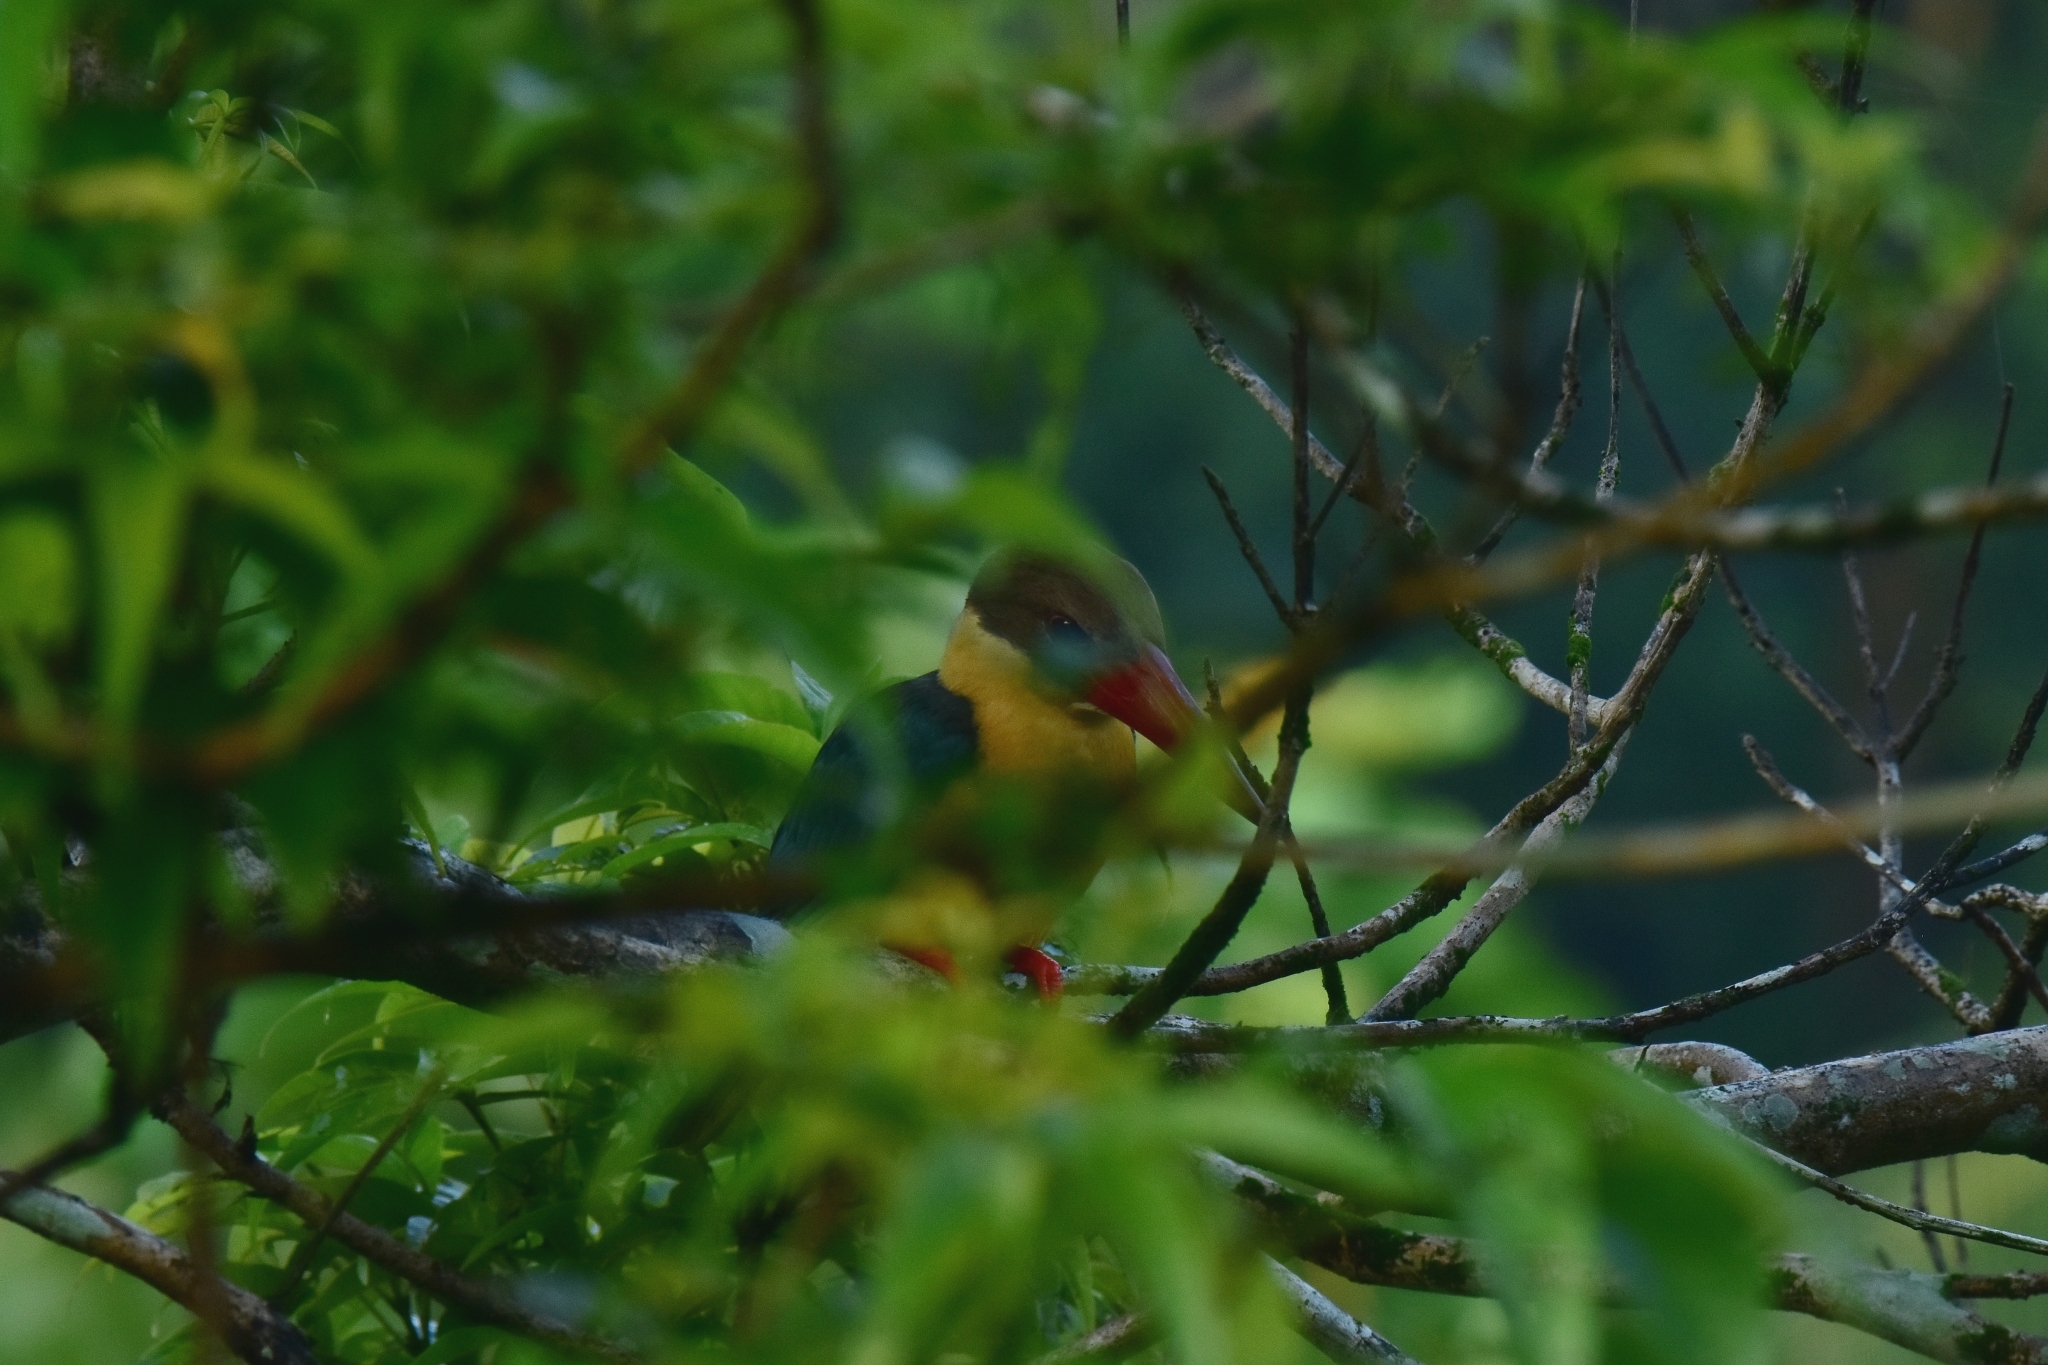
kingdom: Animalia
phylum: Chordata
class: Aves
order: Coraciiformes
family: Alcedinidae
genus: Pelargopsis
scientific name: Pelargopsis capensis
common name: Stork-billed kingfisher
